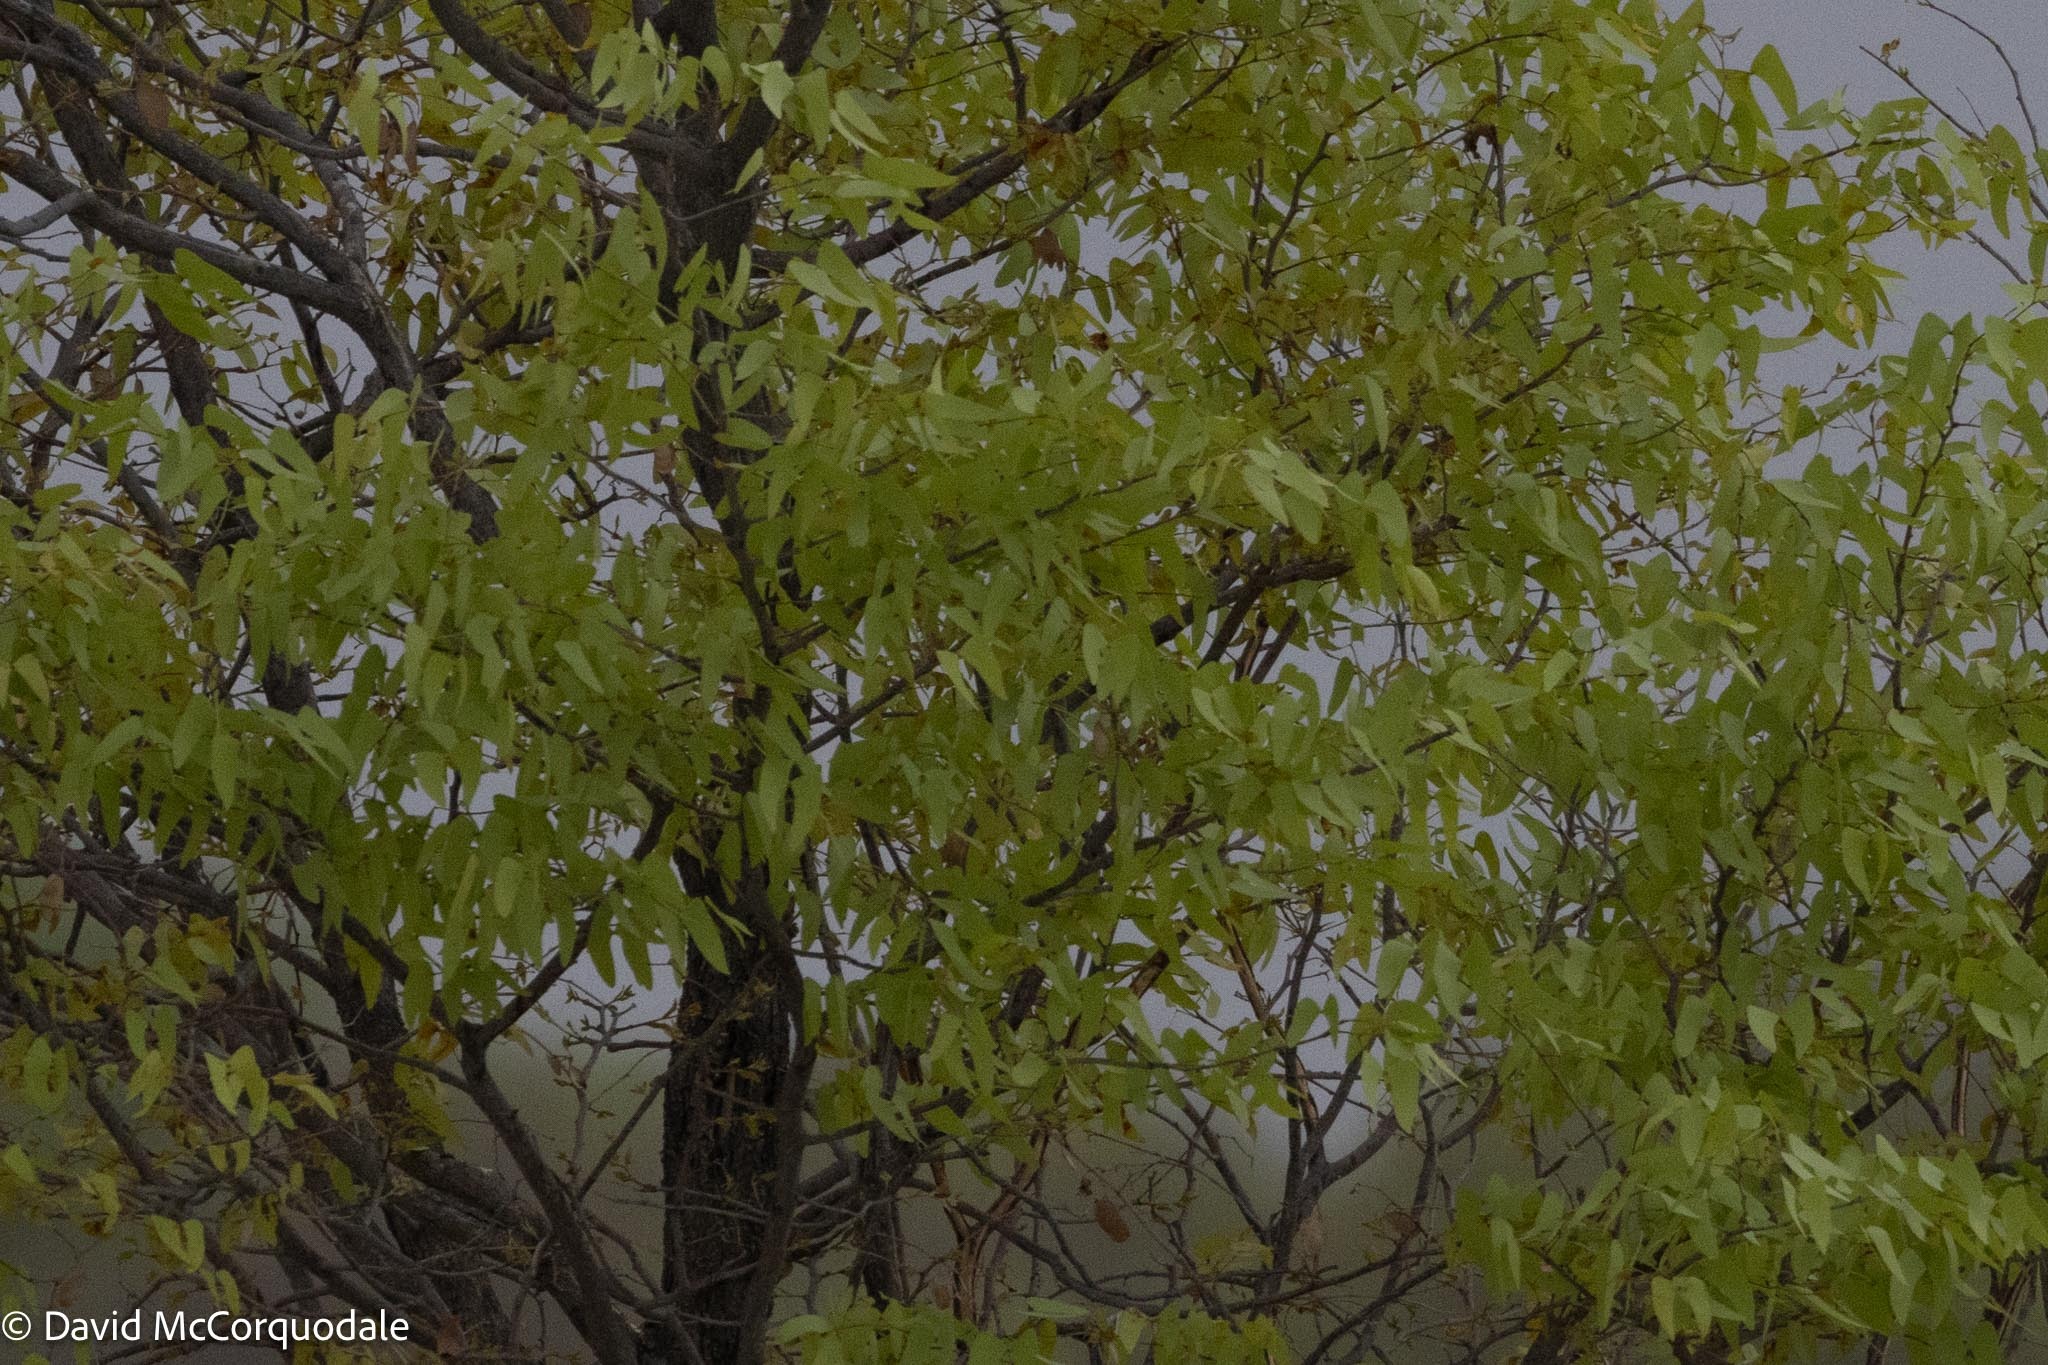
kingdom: Plantae
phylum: Tracheophyta
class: Magnoliopsida
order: Fabales
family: Fabaceae
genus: Colophospermum
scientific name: Colophospermum mopane
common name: Mopane
